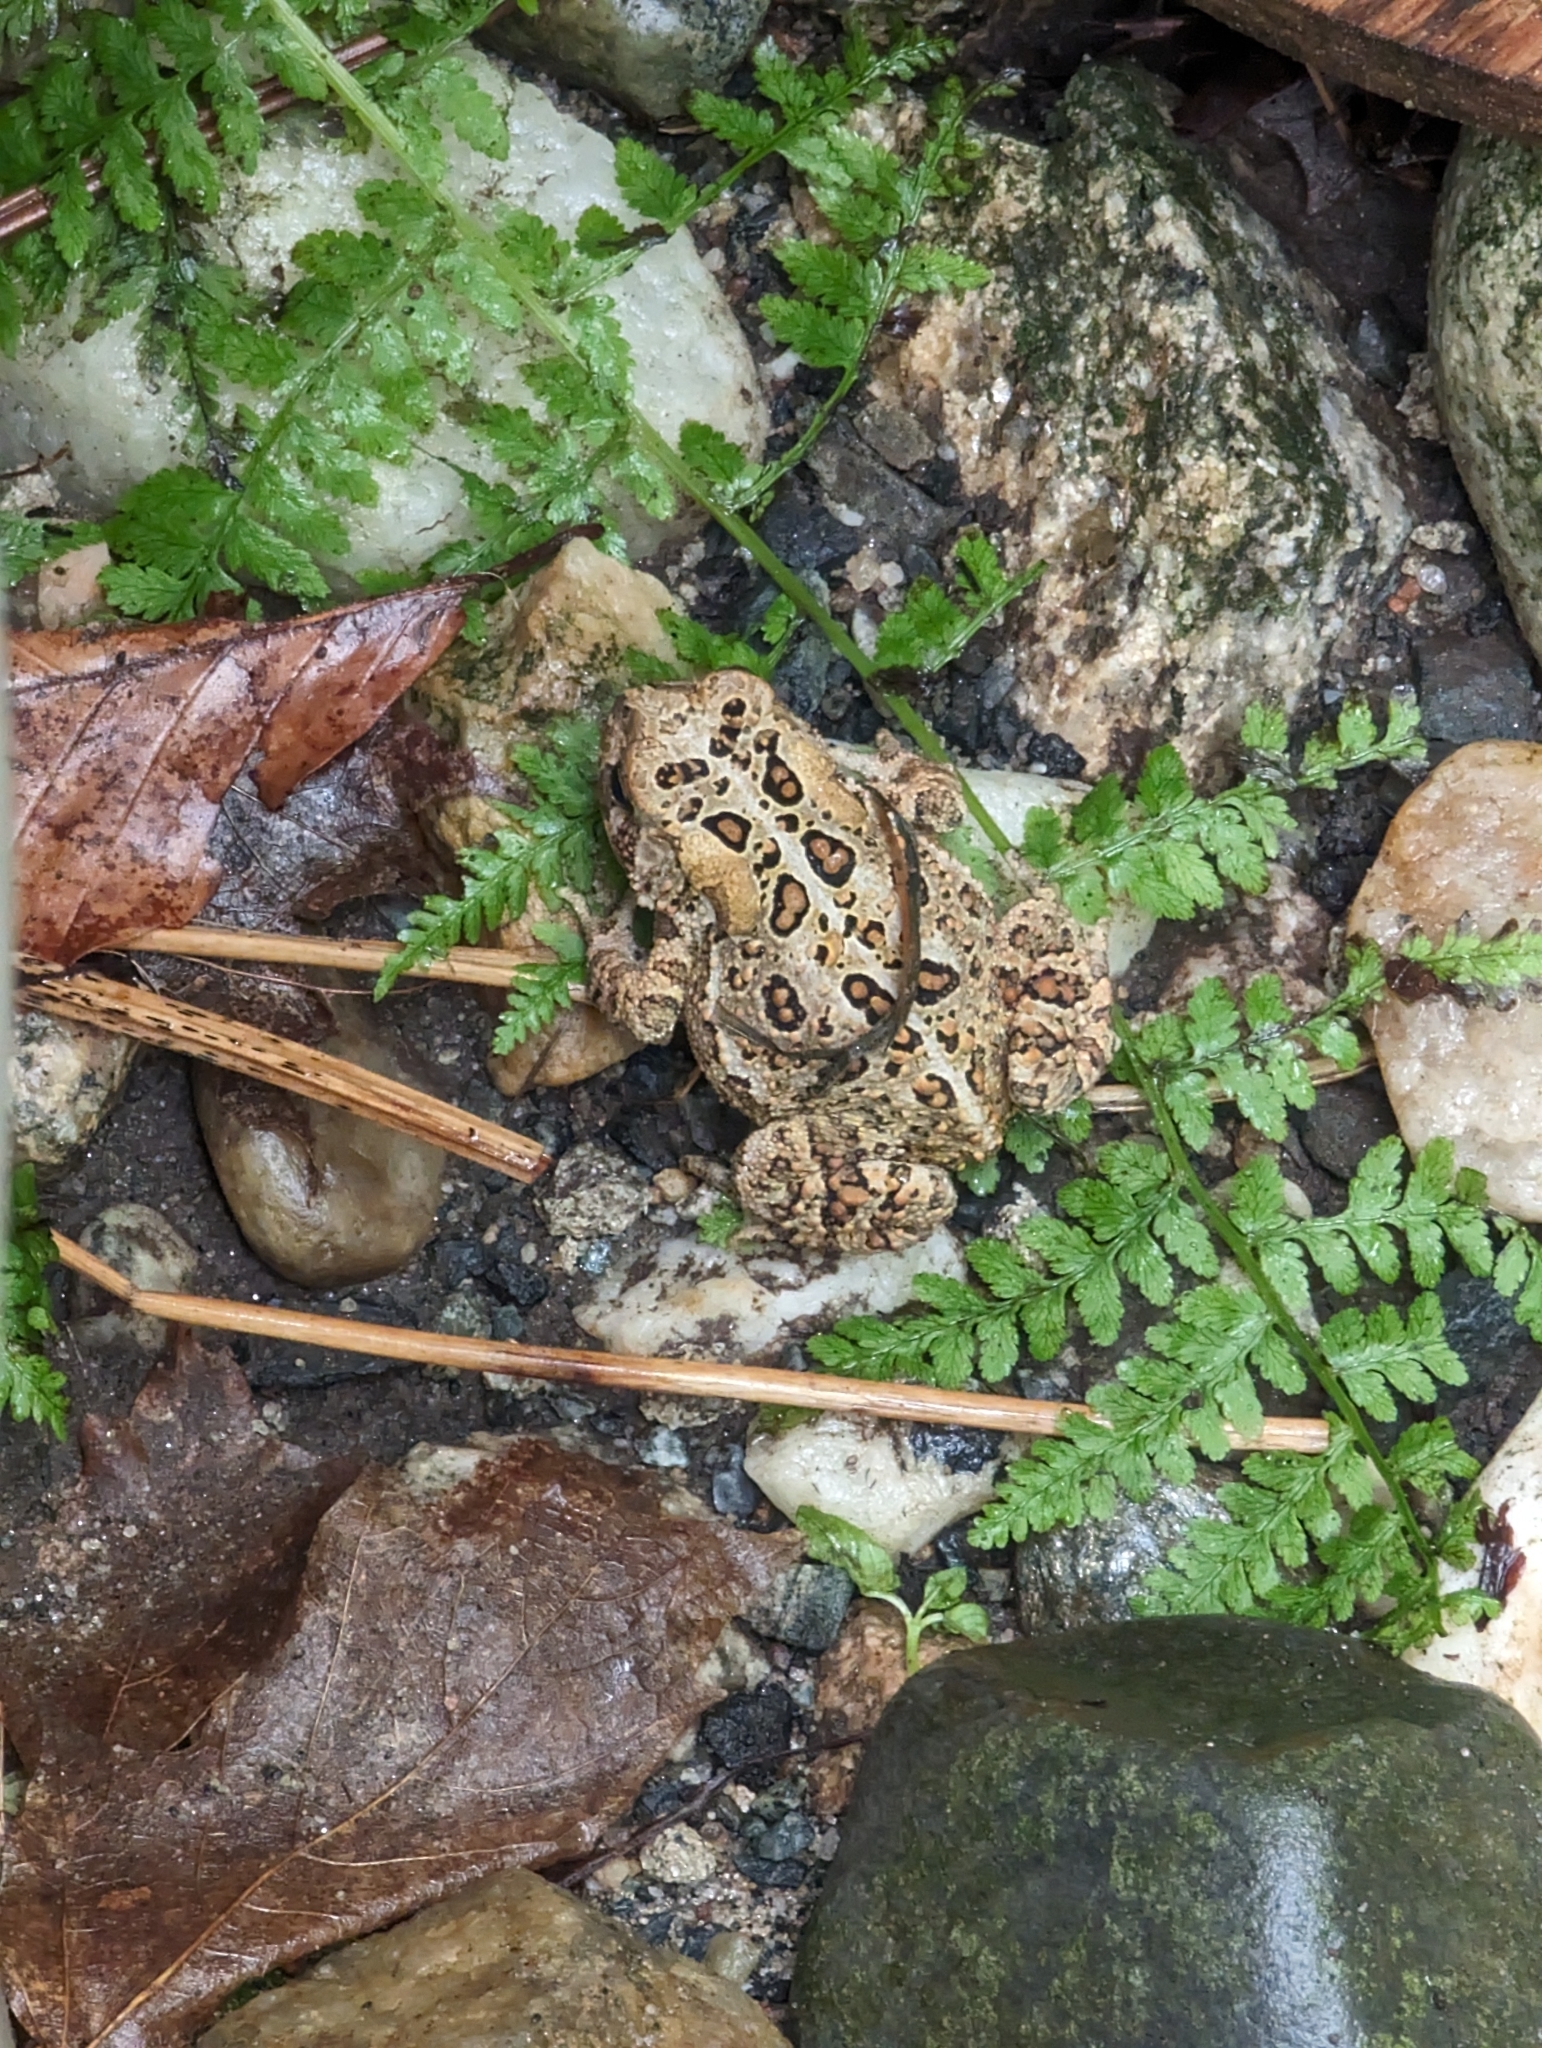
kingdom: Animalia
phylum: Chordata
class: Amphibia
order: Anura
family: Bufonidae
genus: Anaxyrus
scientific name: Anaxyrus americanus
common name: American toad
